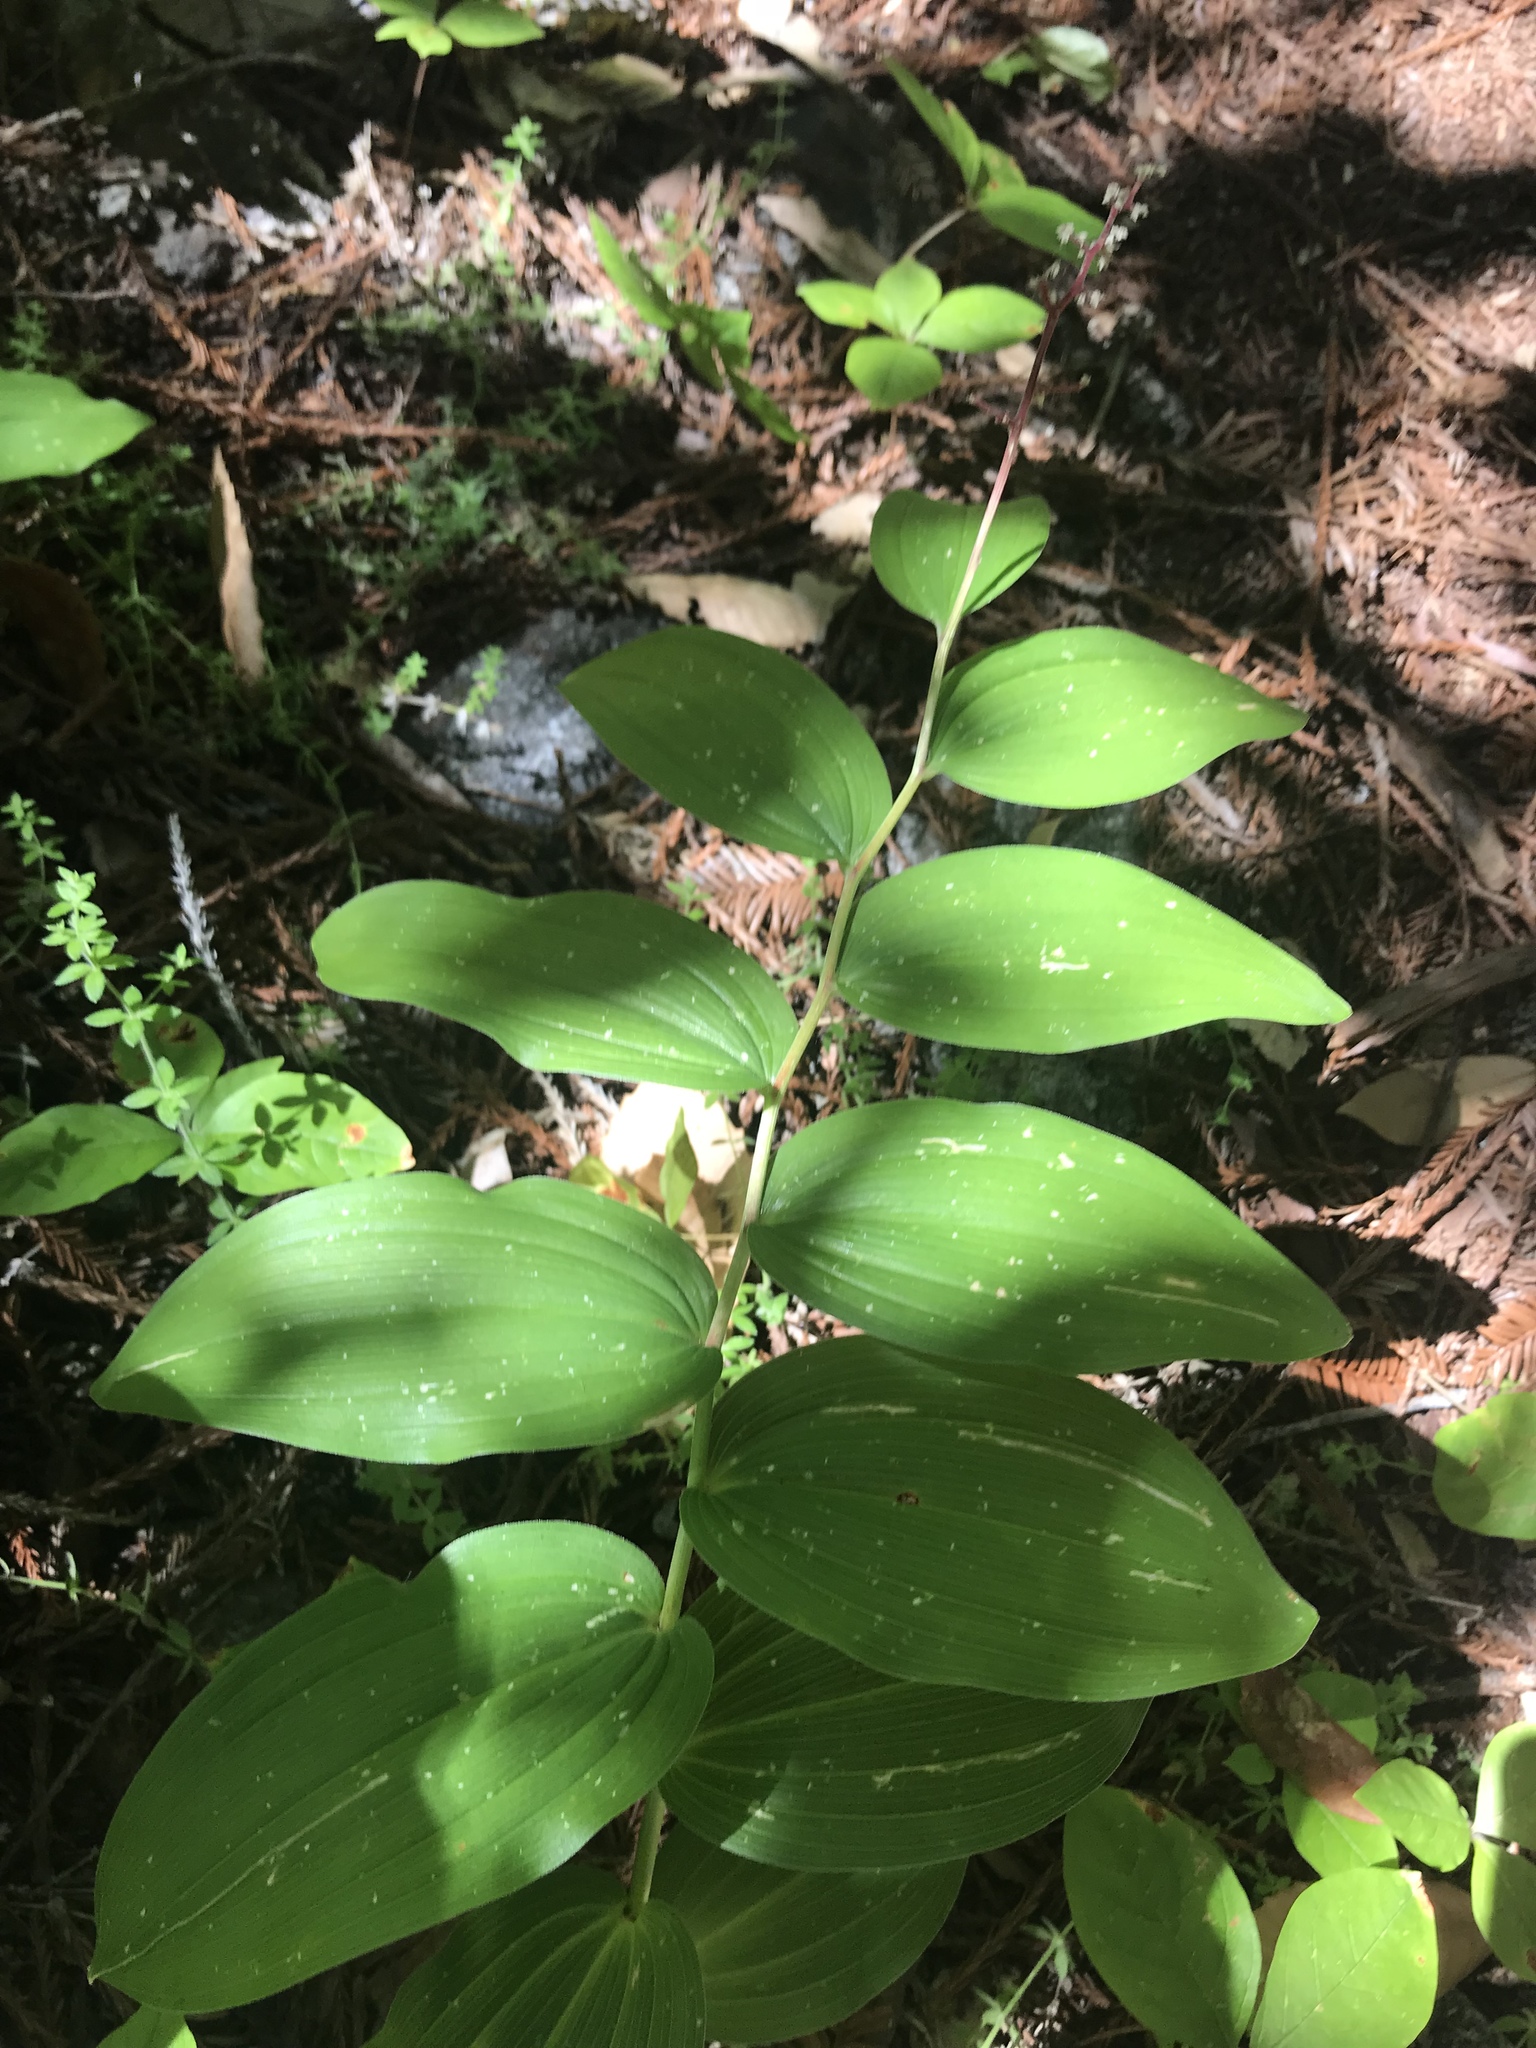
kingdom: Plantae
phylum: Tracheophyta
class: Liliopsida
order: Asparagales
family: Asparagaceae
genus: Maianthemum
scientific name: Maianthemum racemosum
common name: False spikenard
